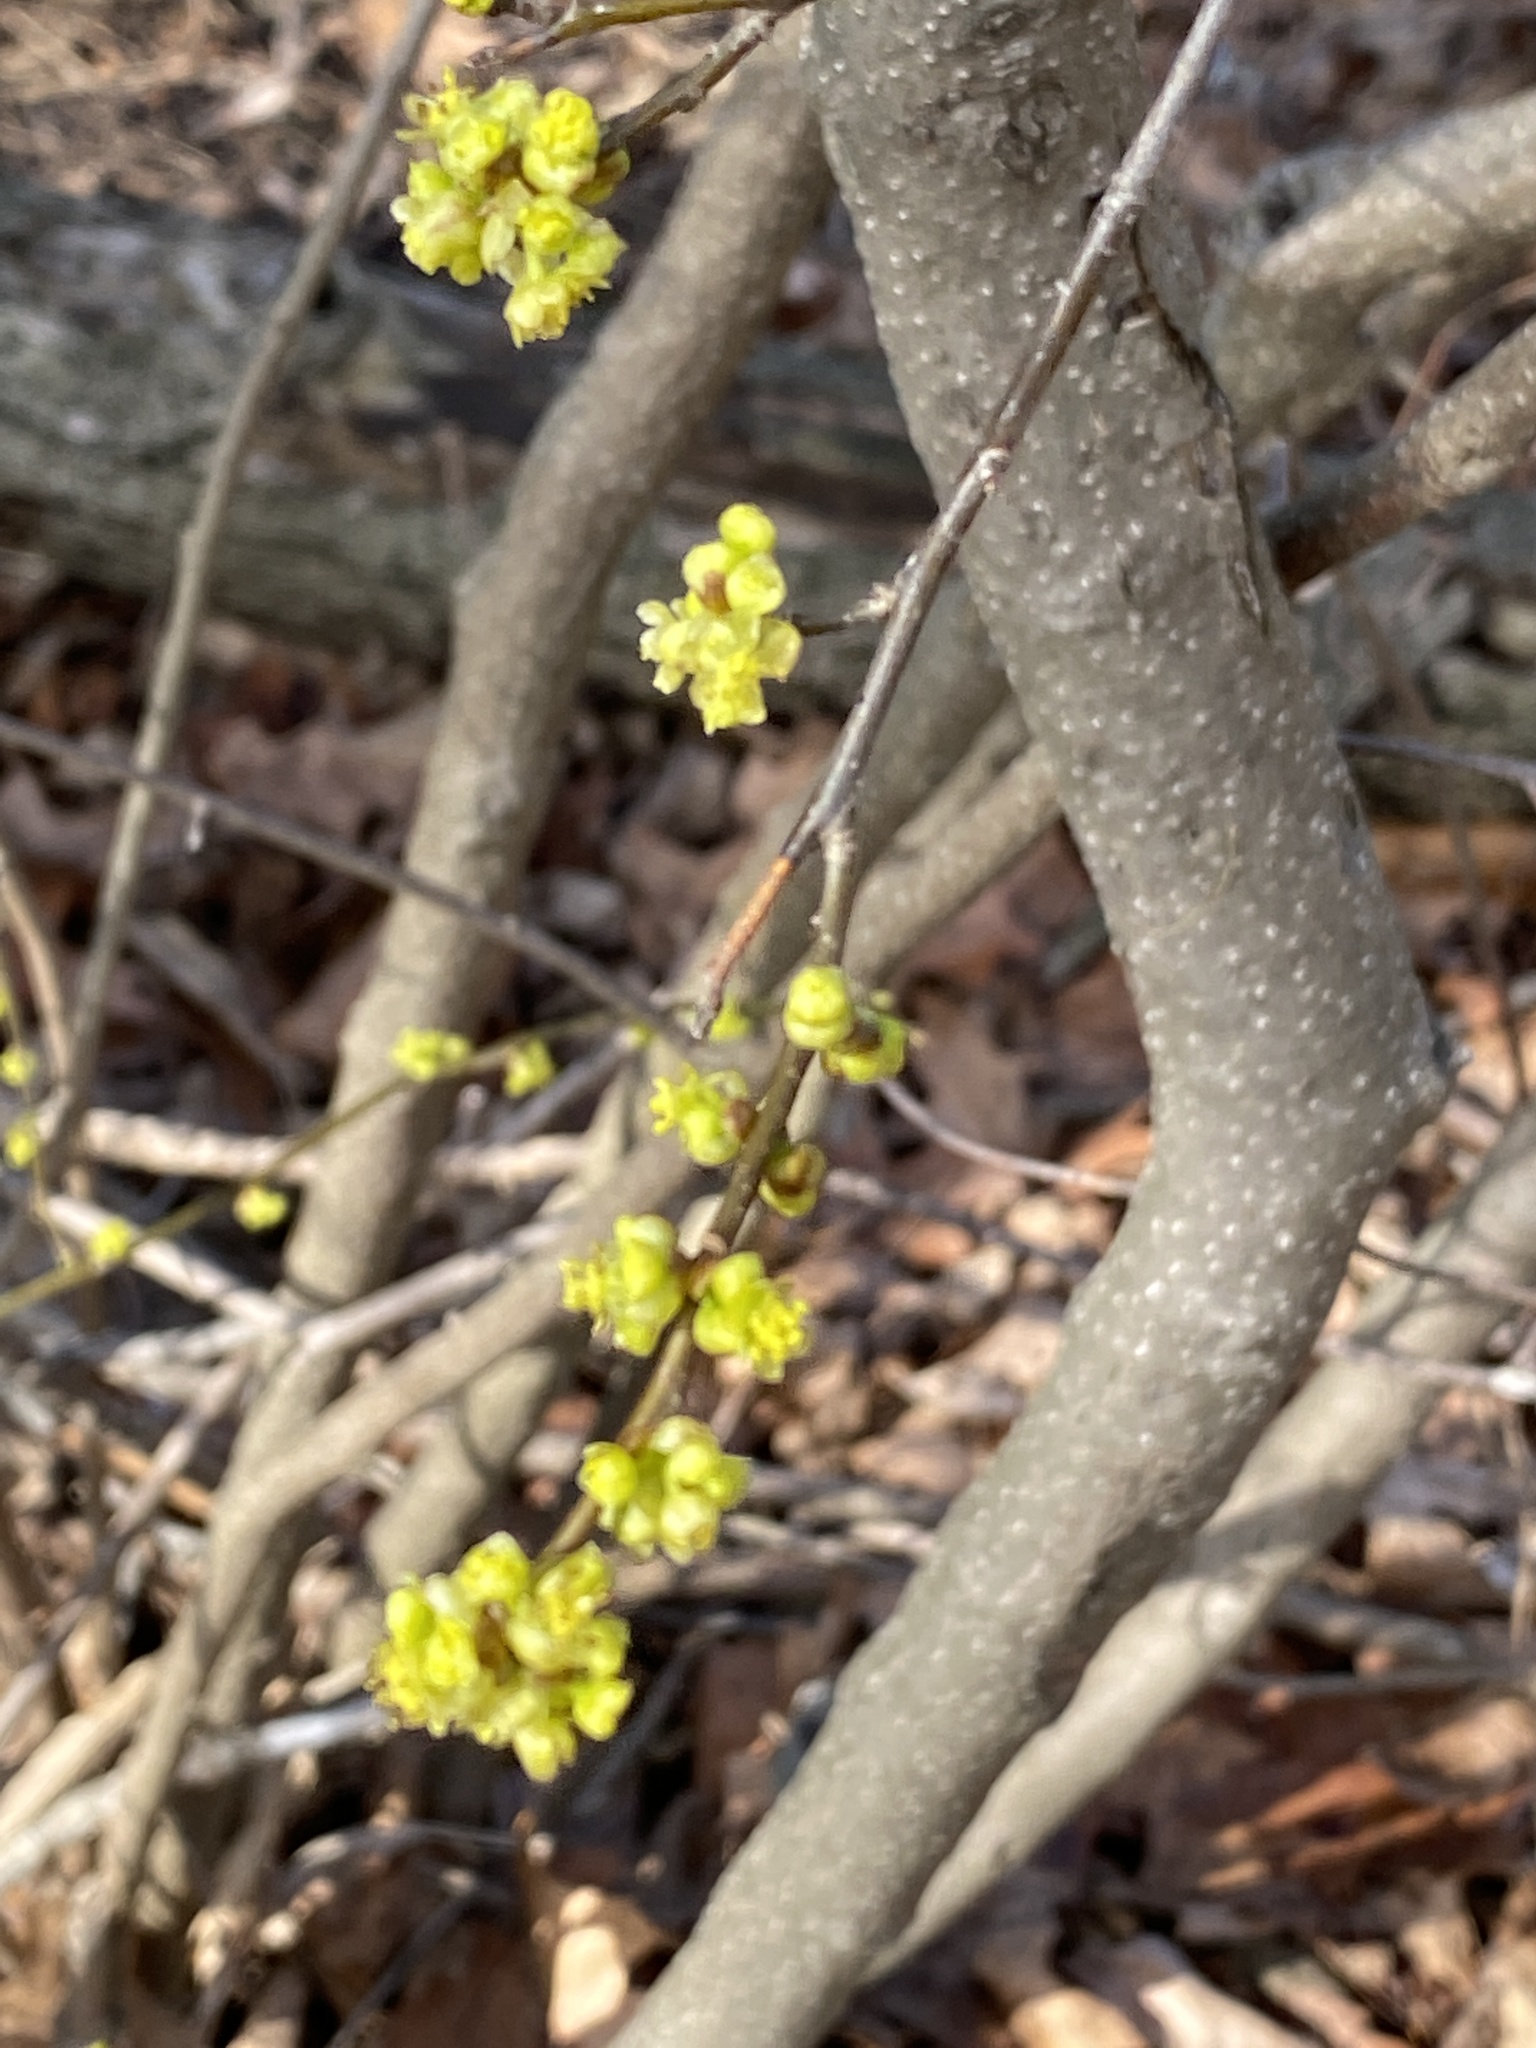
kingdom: Plantae
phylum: Tracheophyta
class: Magnoliopsida
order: Laurales
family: Lauraceae
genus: Lindera
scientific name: Lindera benzoin
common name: Spicebush
